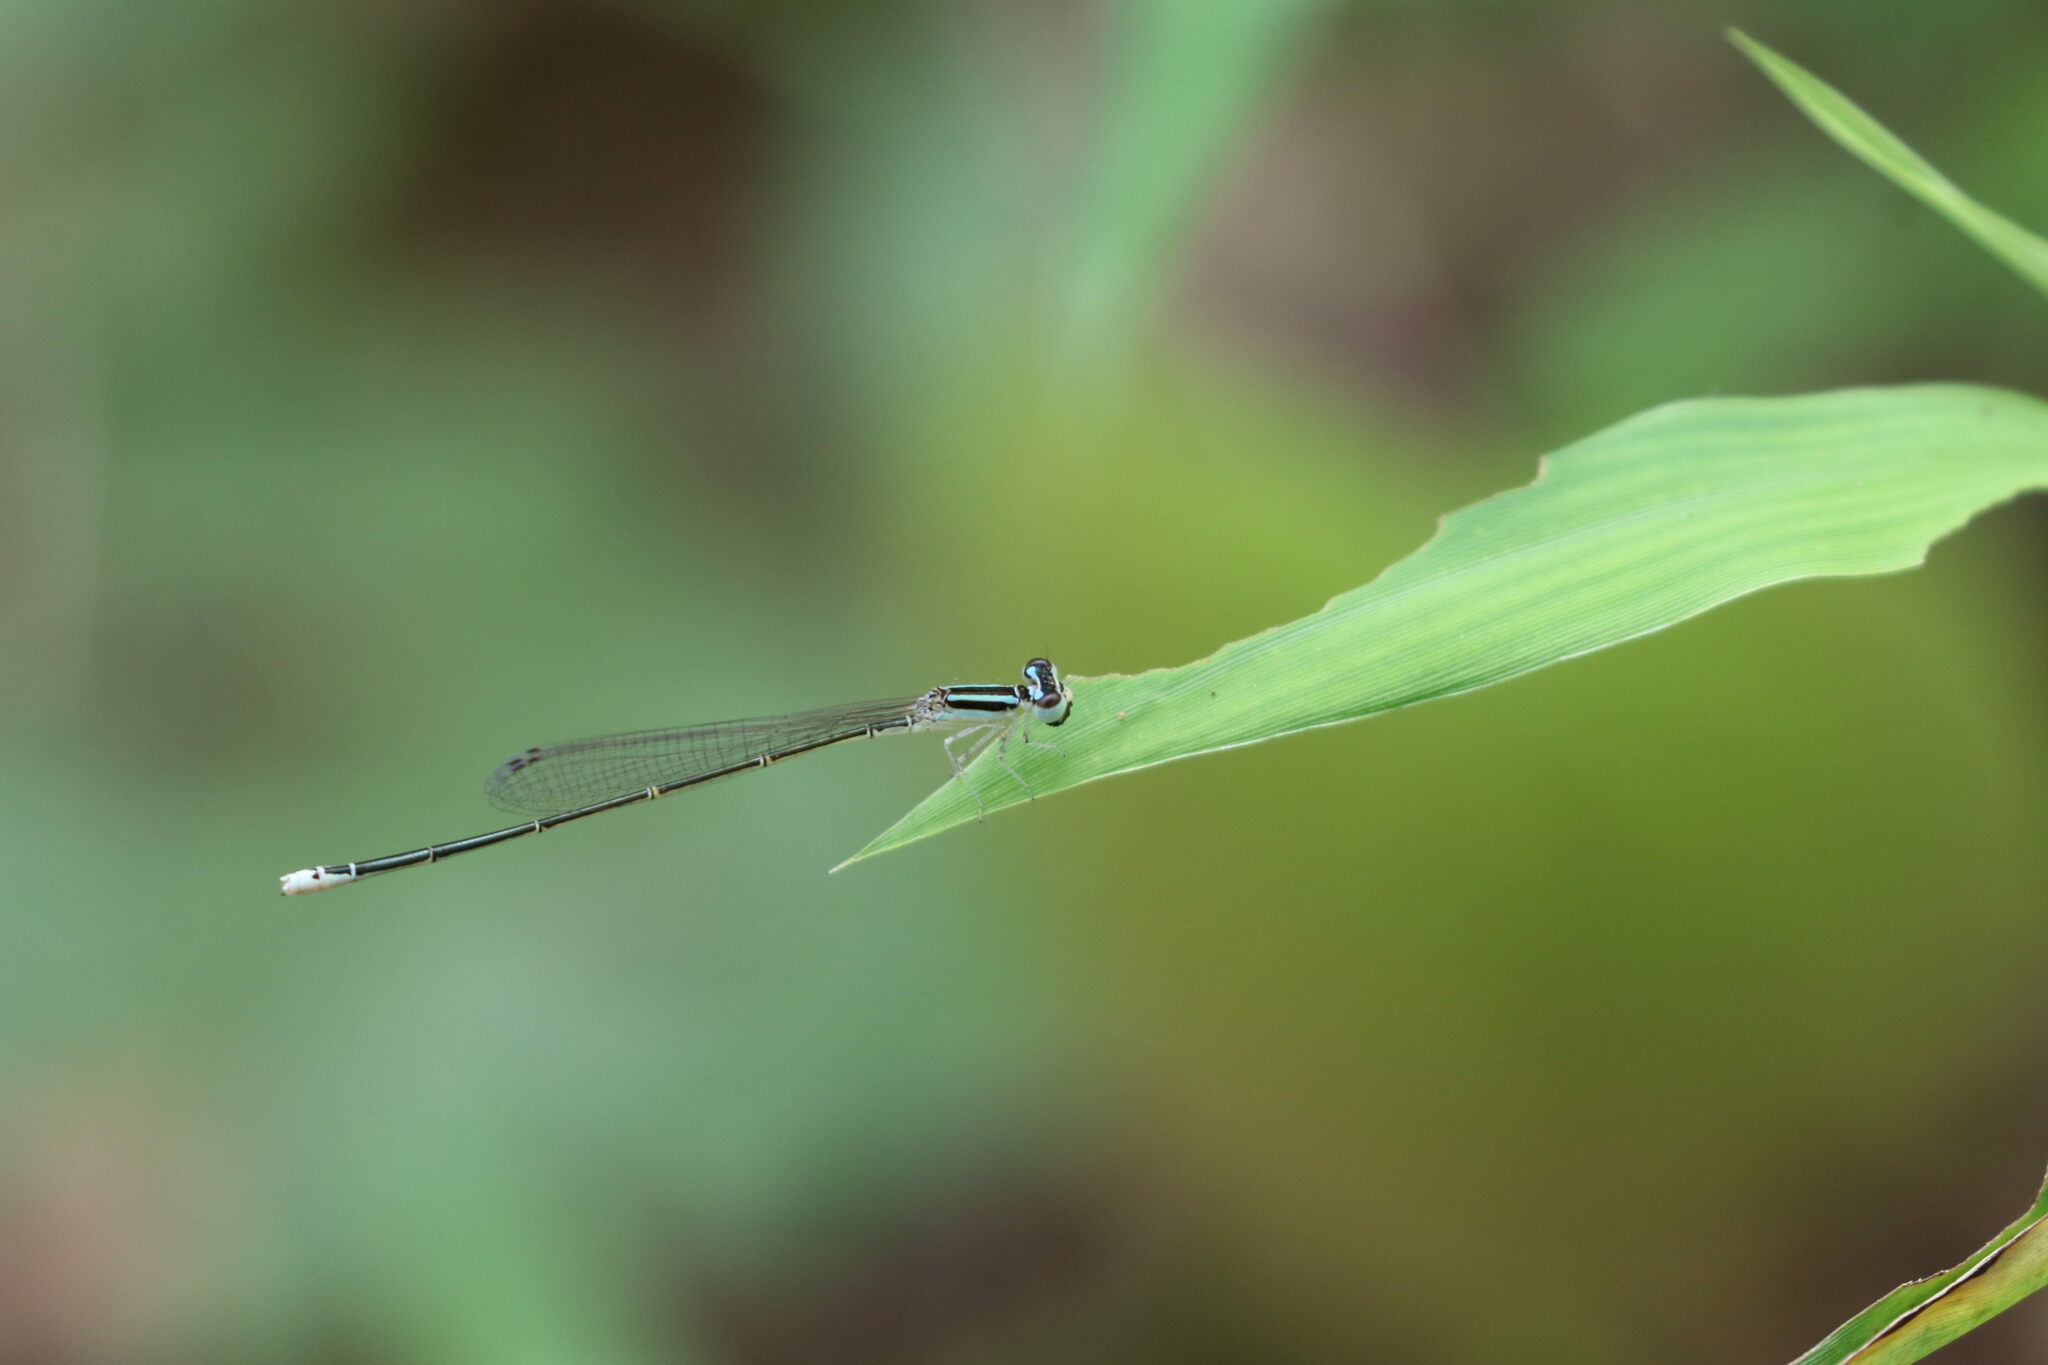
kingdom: Animalia
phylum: Arthropoda
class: Insecta
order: Odonata
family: Coenagrionidae
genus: Aciagrion
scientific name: Aciagrion occidentale
